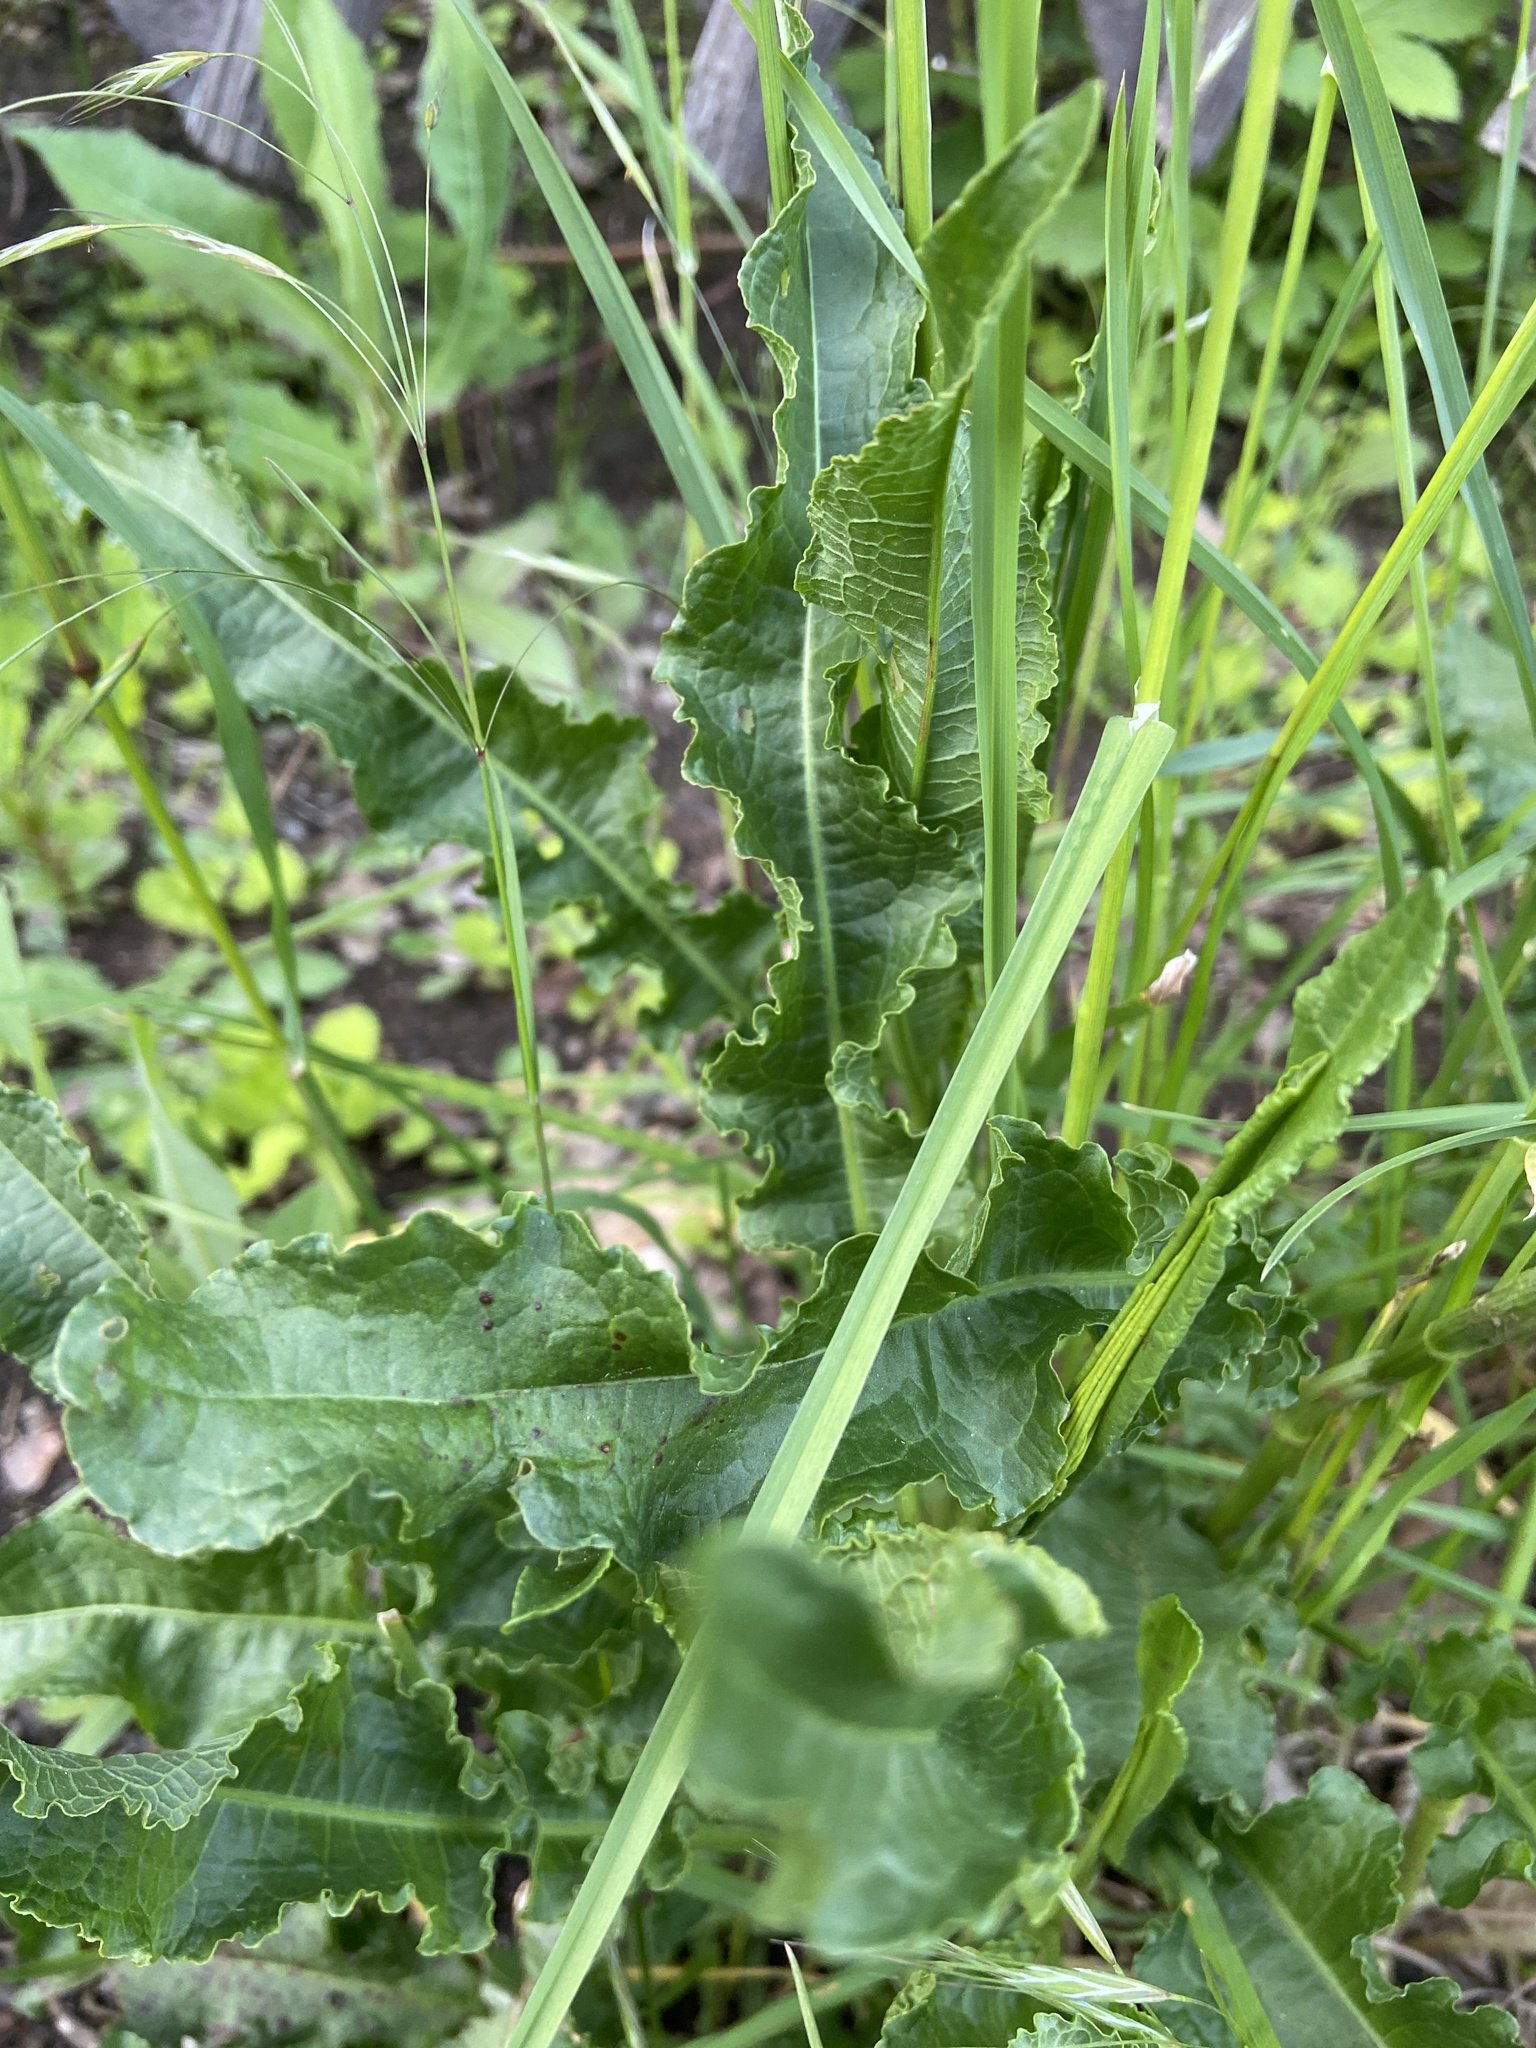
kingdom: Plantae
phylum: Tracheophyta
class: Magnoliopsida
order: Caryophyllales
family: Polygonaceae
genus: Rumex
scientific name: Rumex crispus
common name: Curled dock
